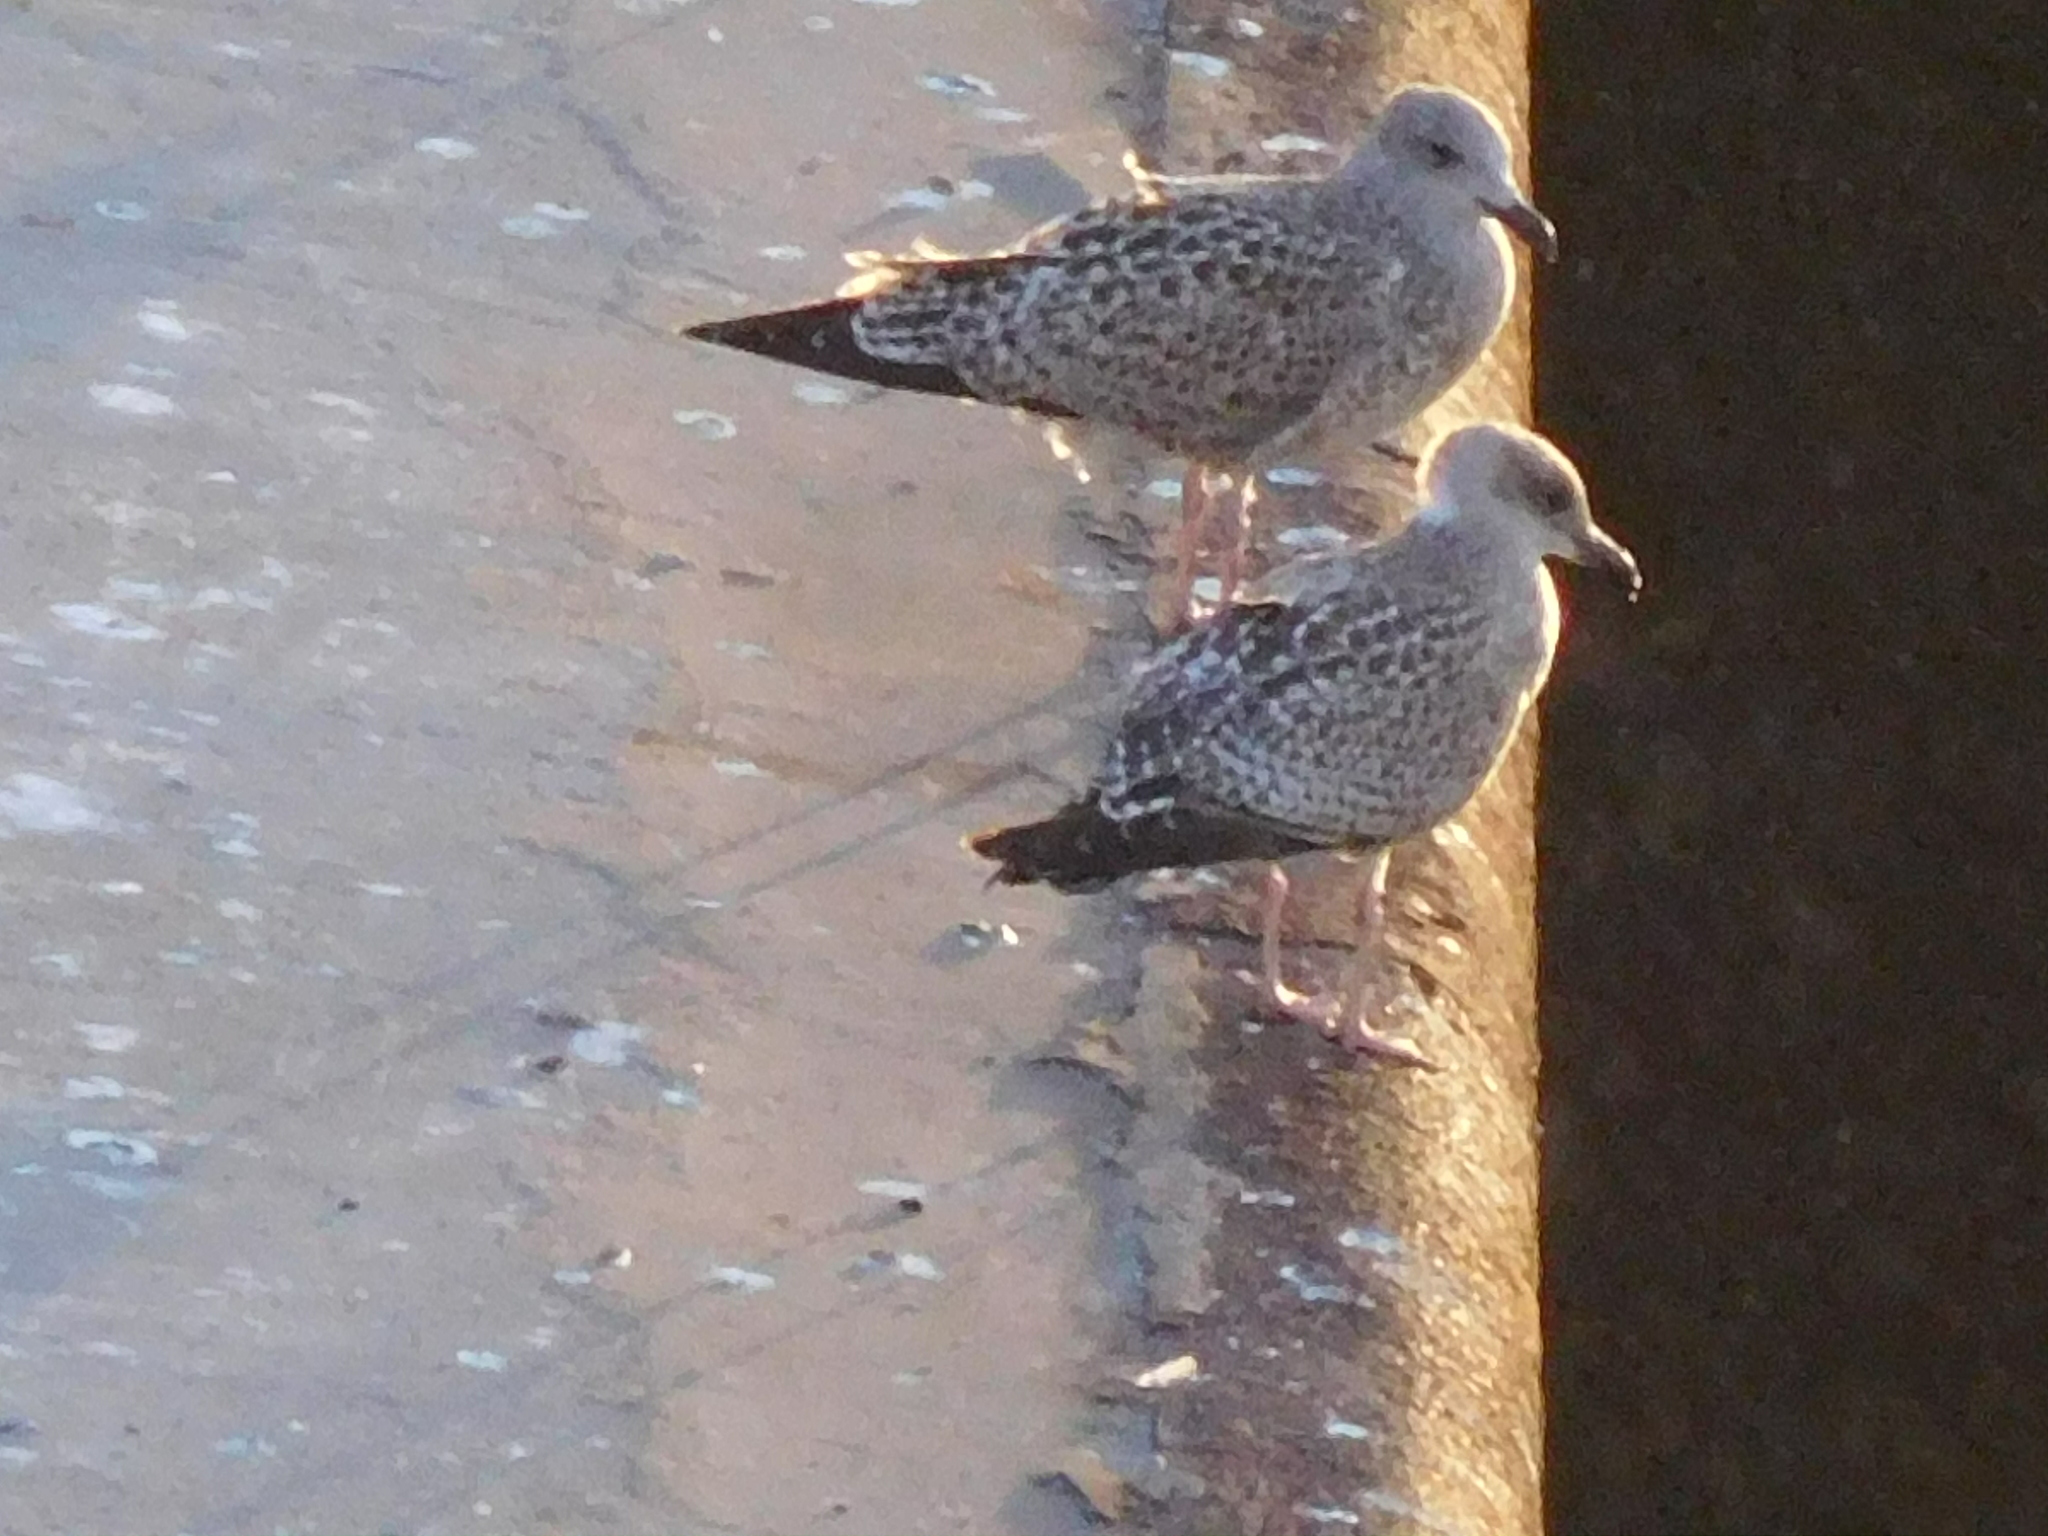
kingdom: Animalia
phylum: Chordata
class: Aves
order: Charadriiformes
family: Laridae
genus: Larus
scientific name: Larus argentatus
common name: Herring gull
